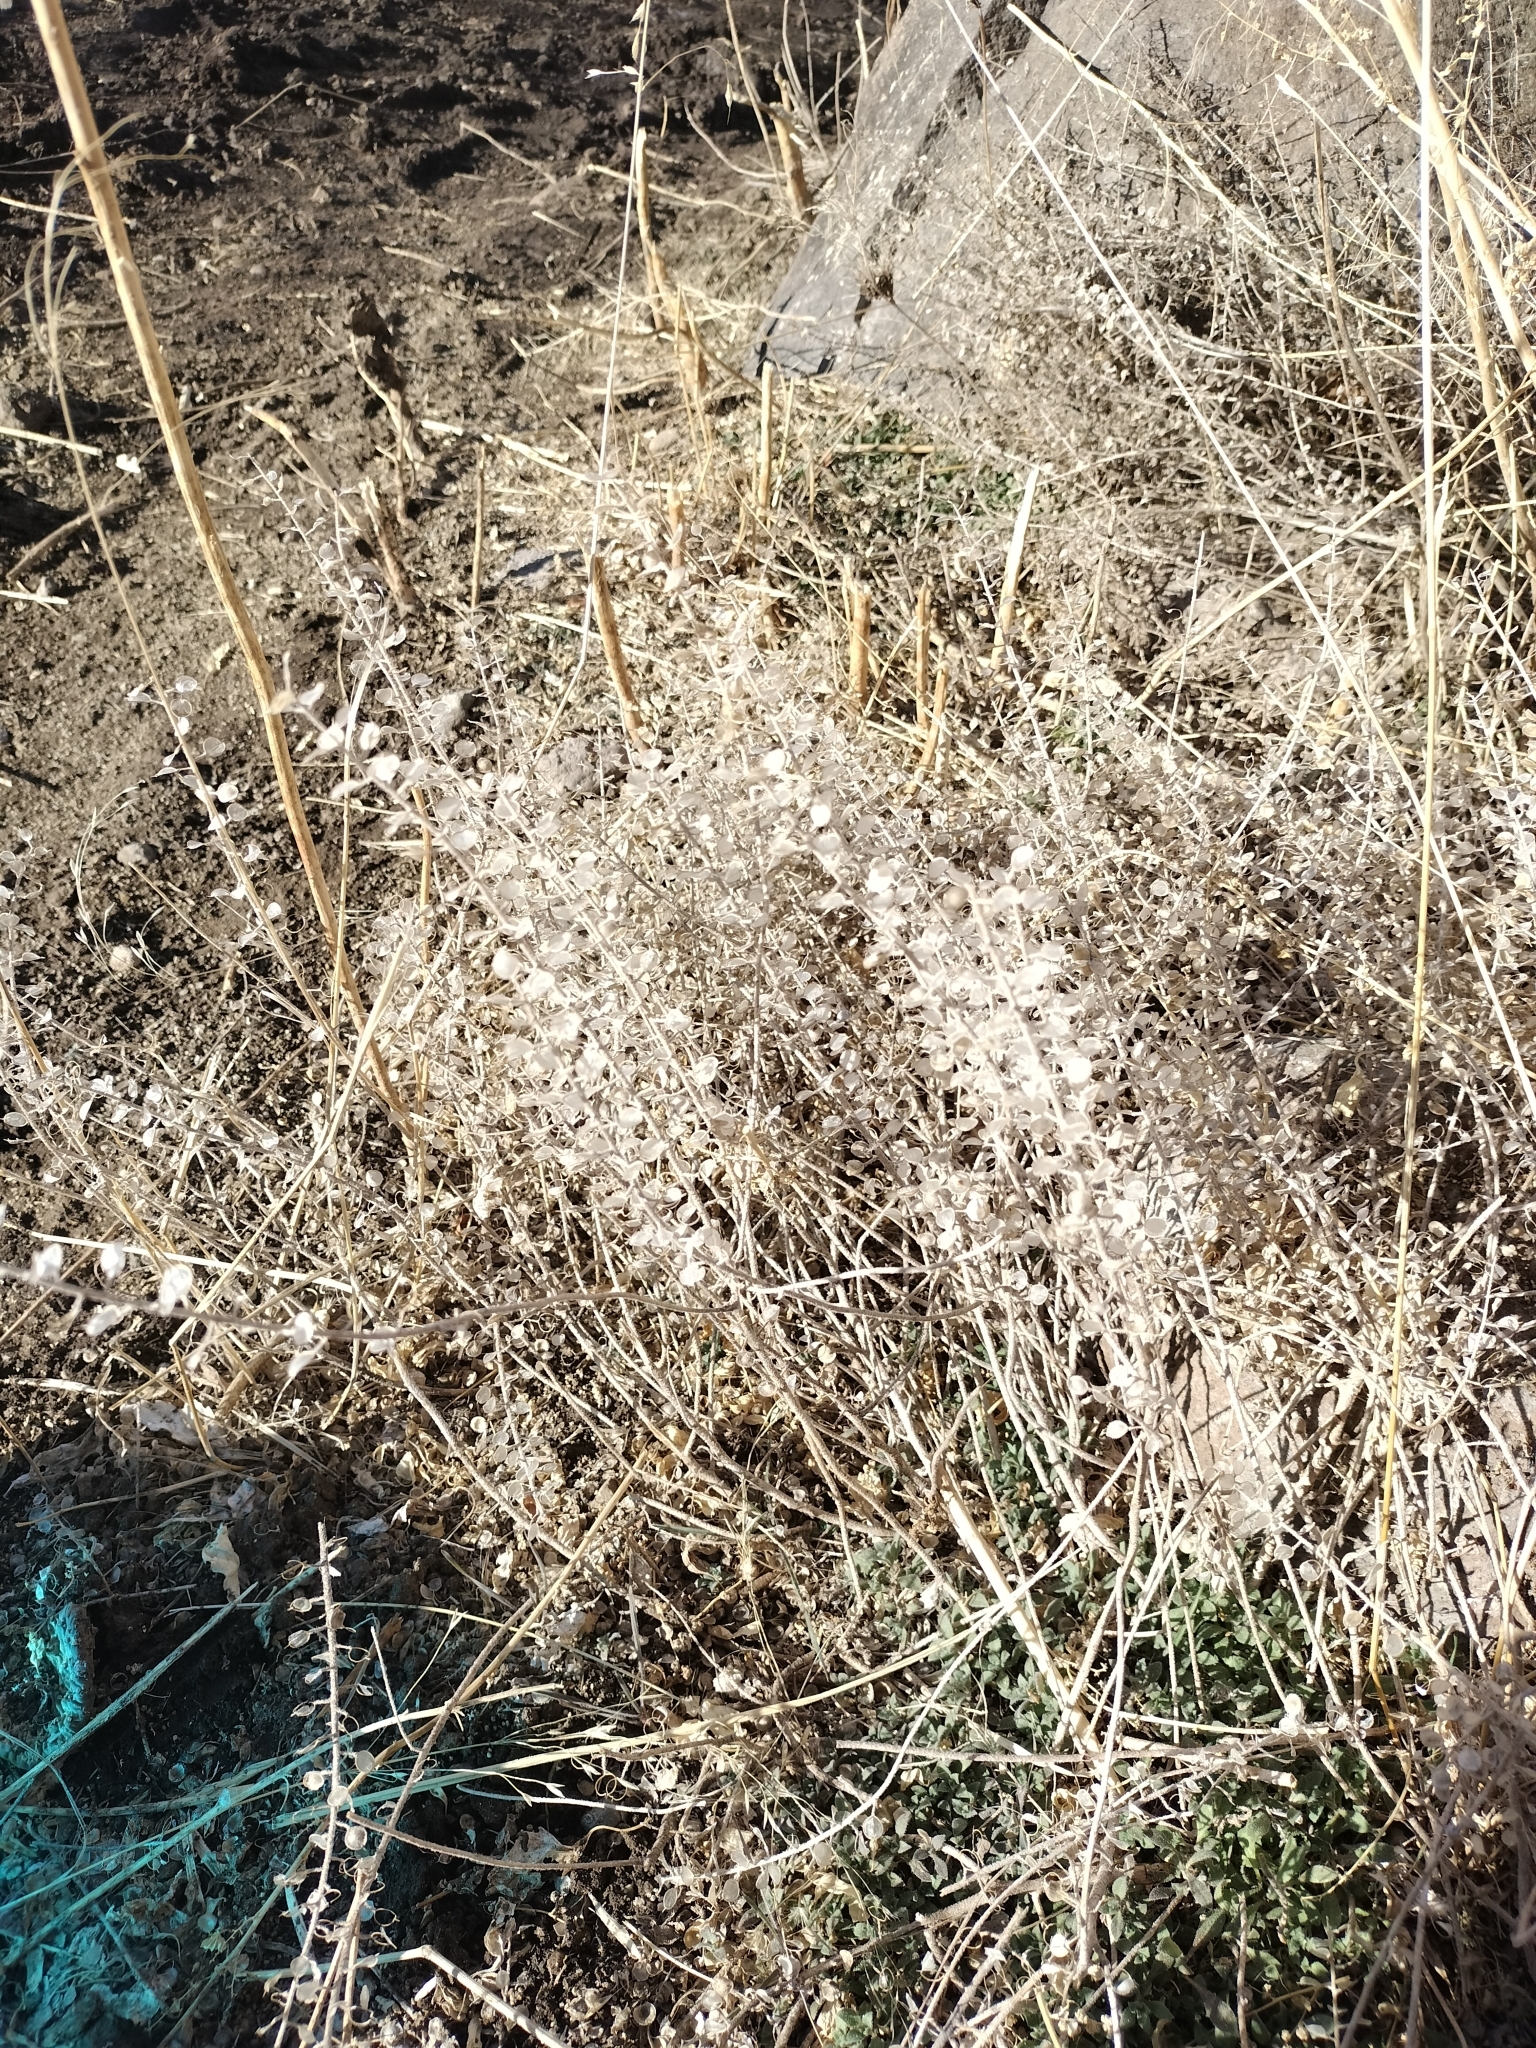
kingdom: Plantae
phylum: Tracheophyta
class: Magnoliopsida
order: Brassicales
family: Brassicaceae
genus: Alyssum
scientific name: Alyssum simplex
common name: Alyssum
